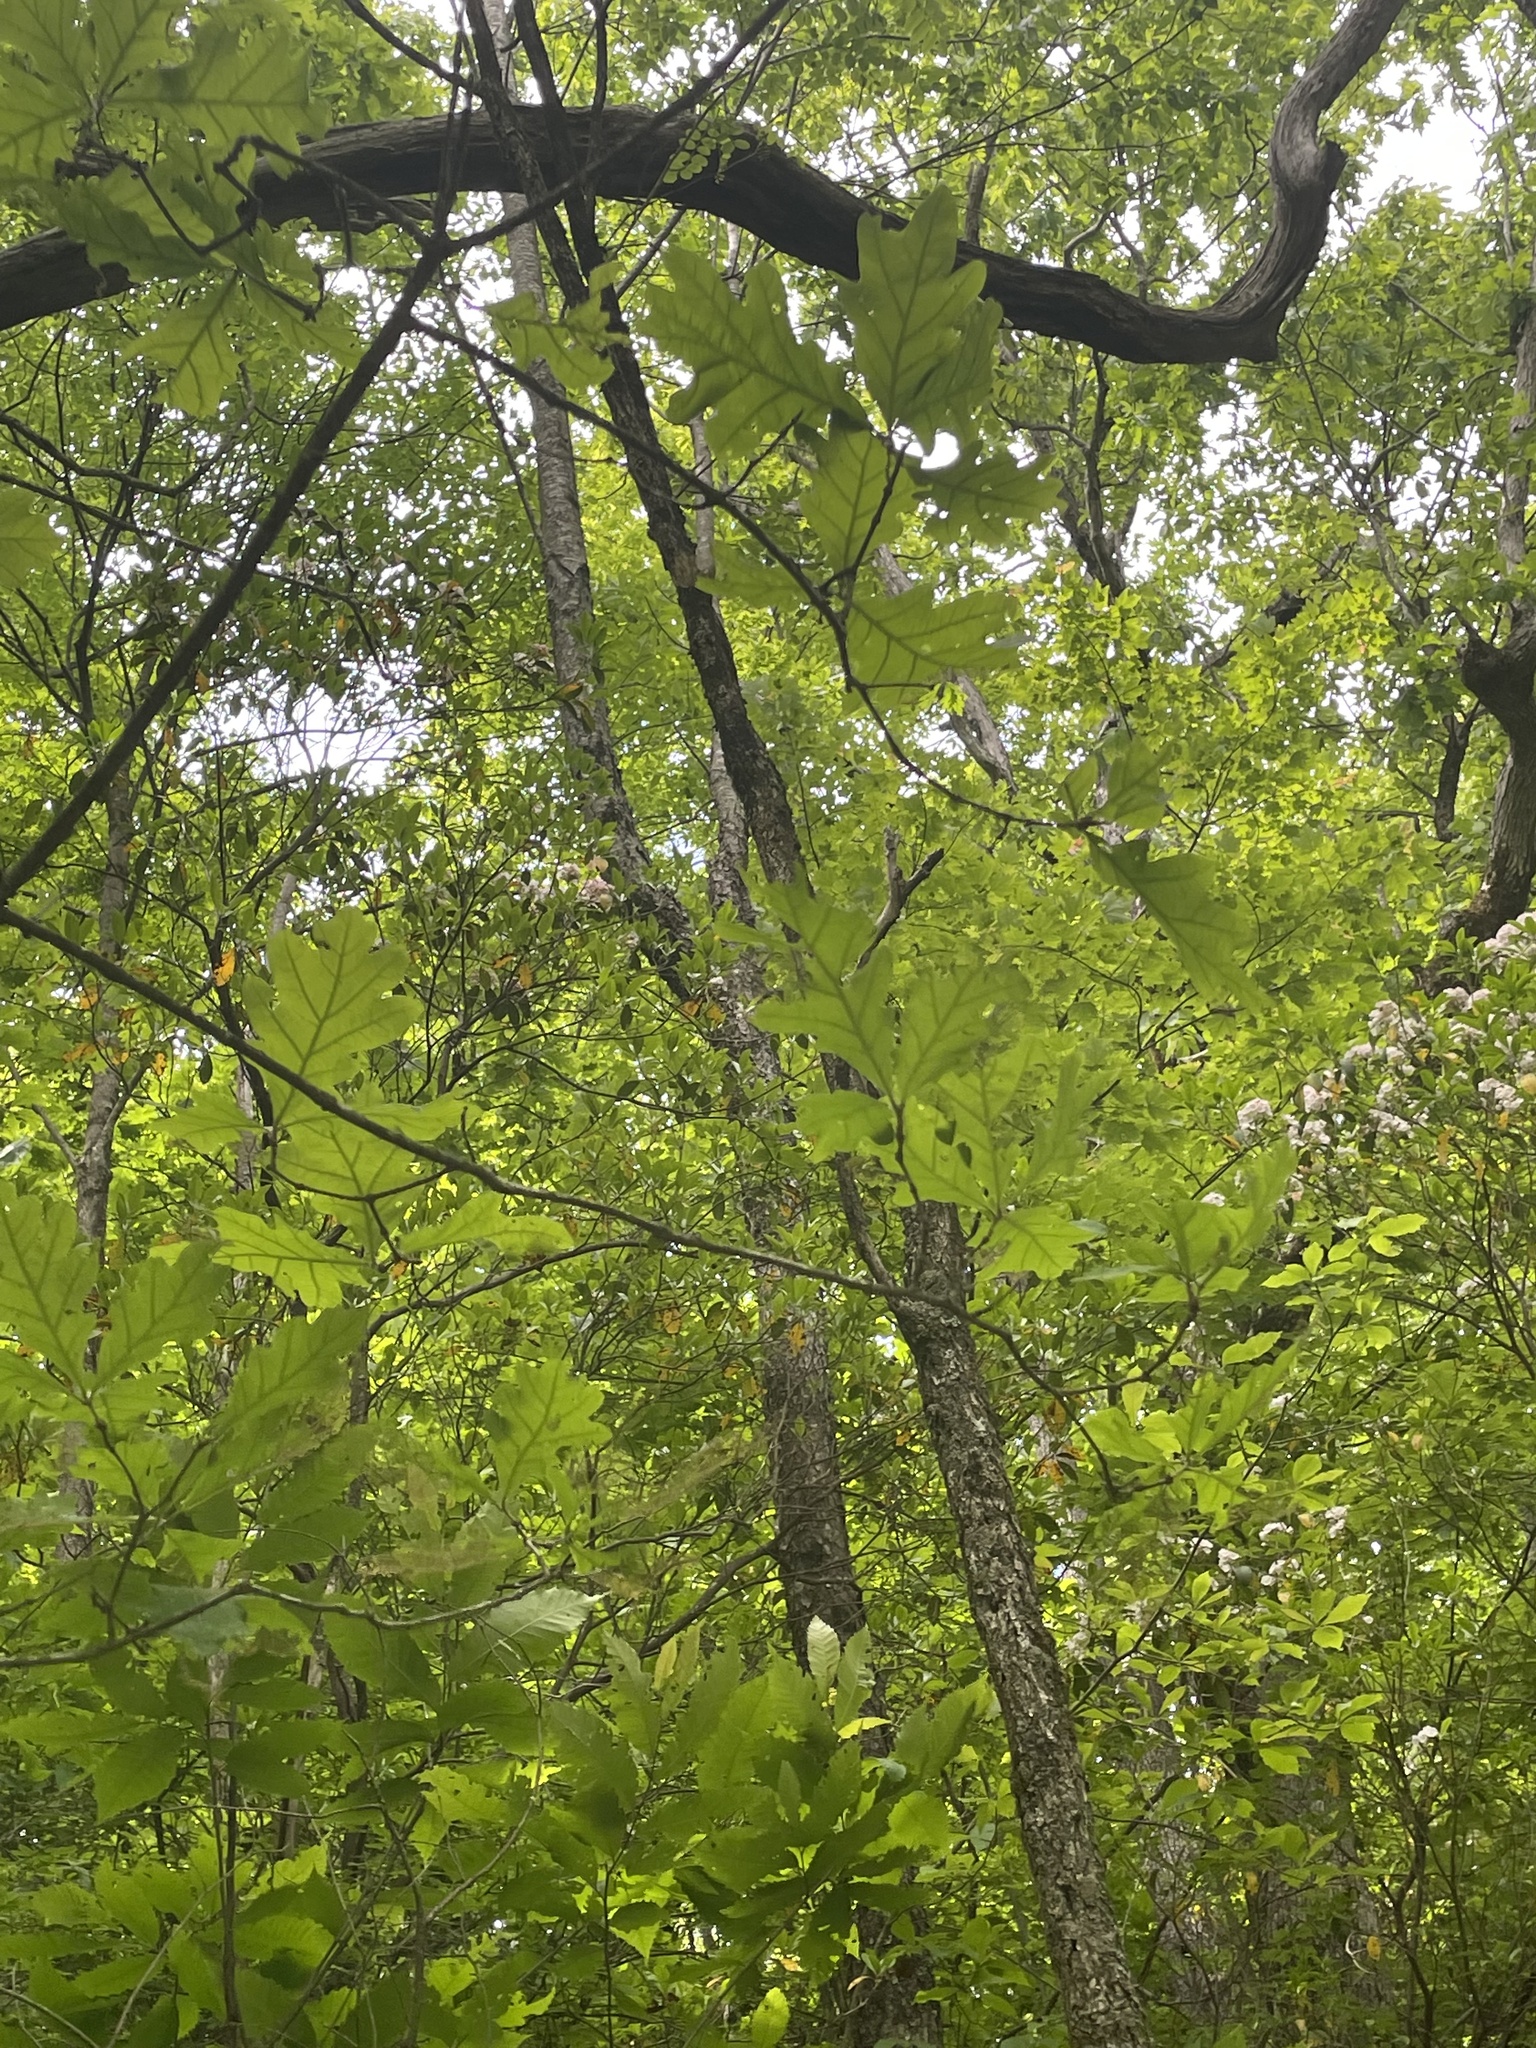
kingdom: Plantae
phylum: Tracheophyta
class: Magnoliopsida
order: Fagales
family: Fagaceae
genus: Quercus
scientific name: Quercus alba
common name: White oak
